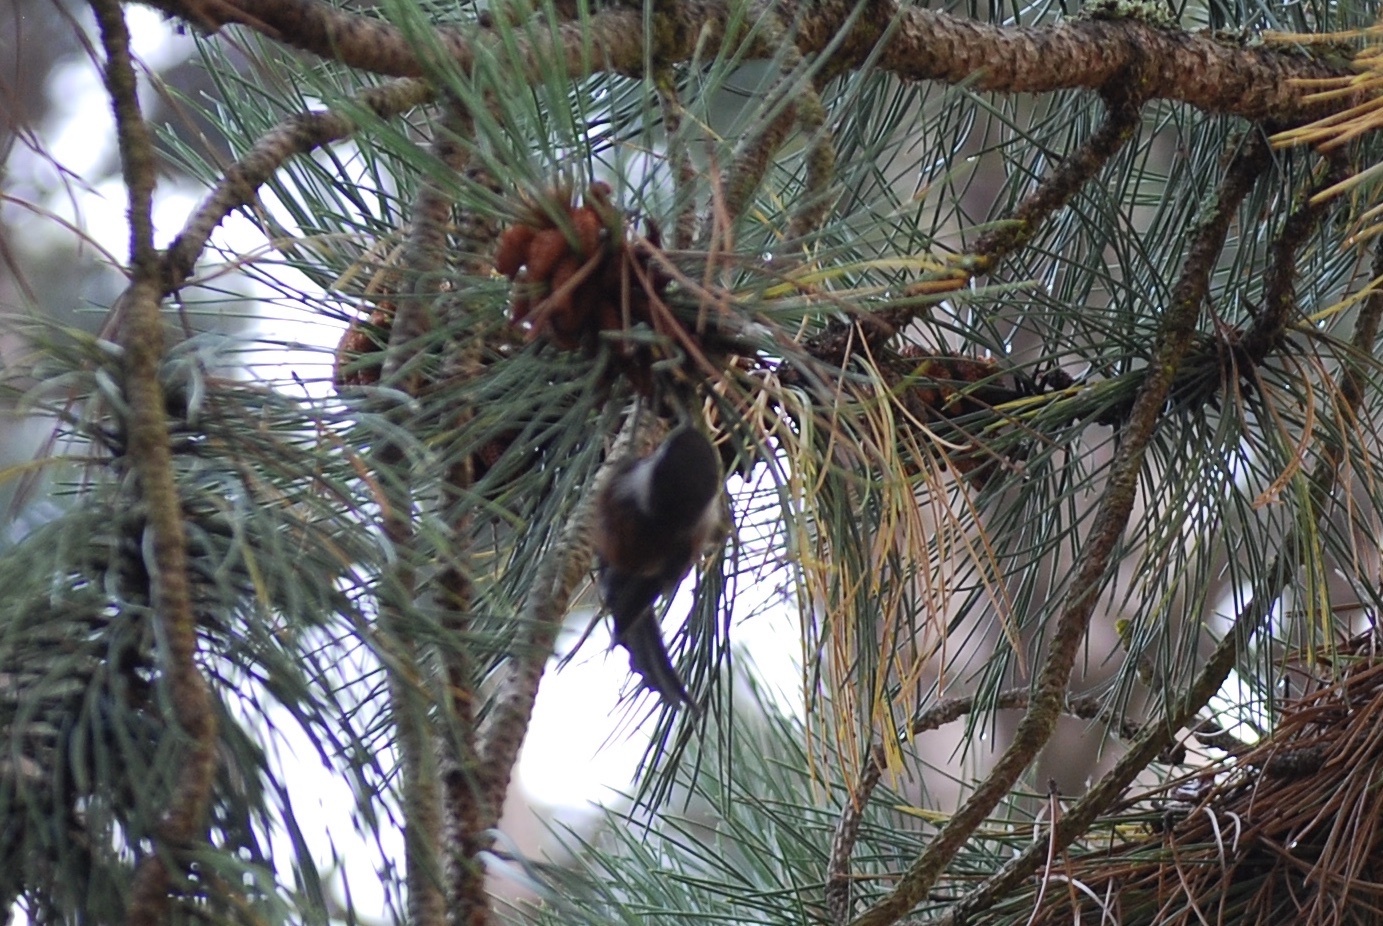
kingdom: Animalia
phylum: Chordata
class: Aves
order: Passeriformes
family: Paridae
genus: Poecile
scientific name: Poecile rufescens
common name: Chestnut-backed chickadee
